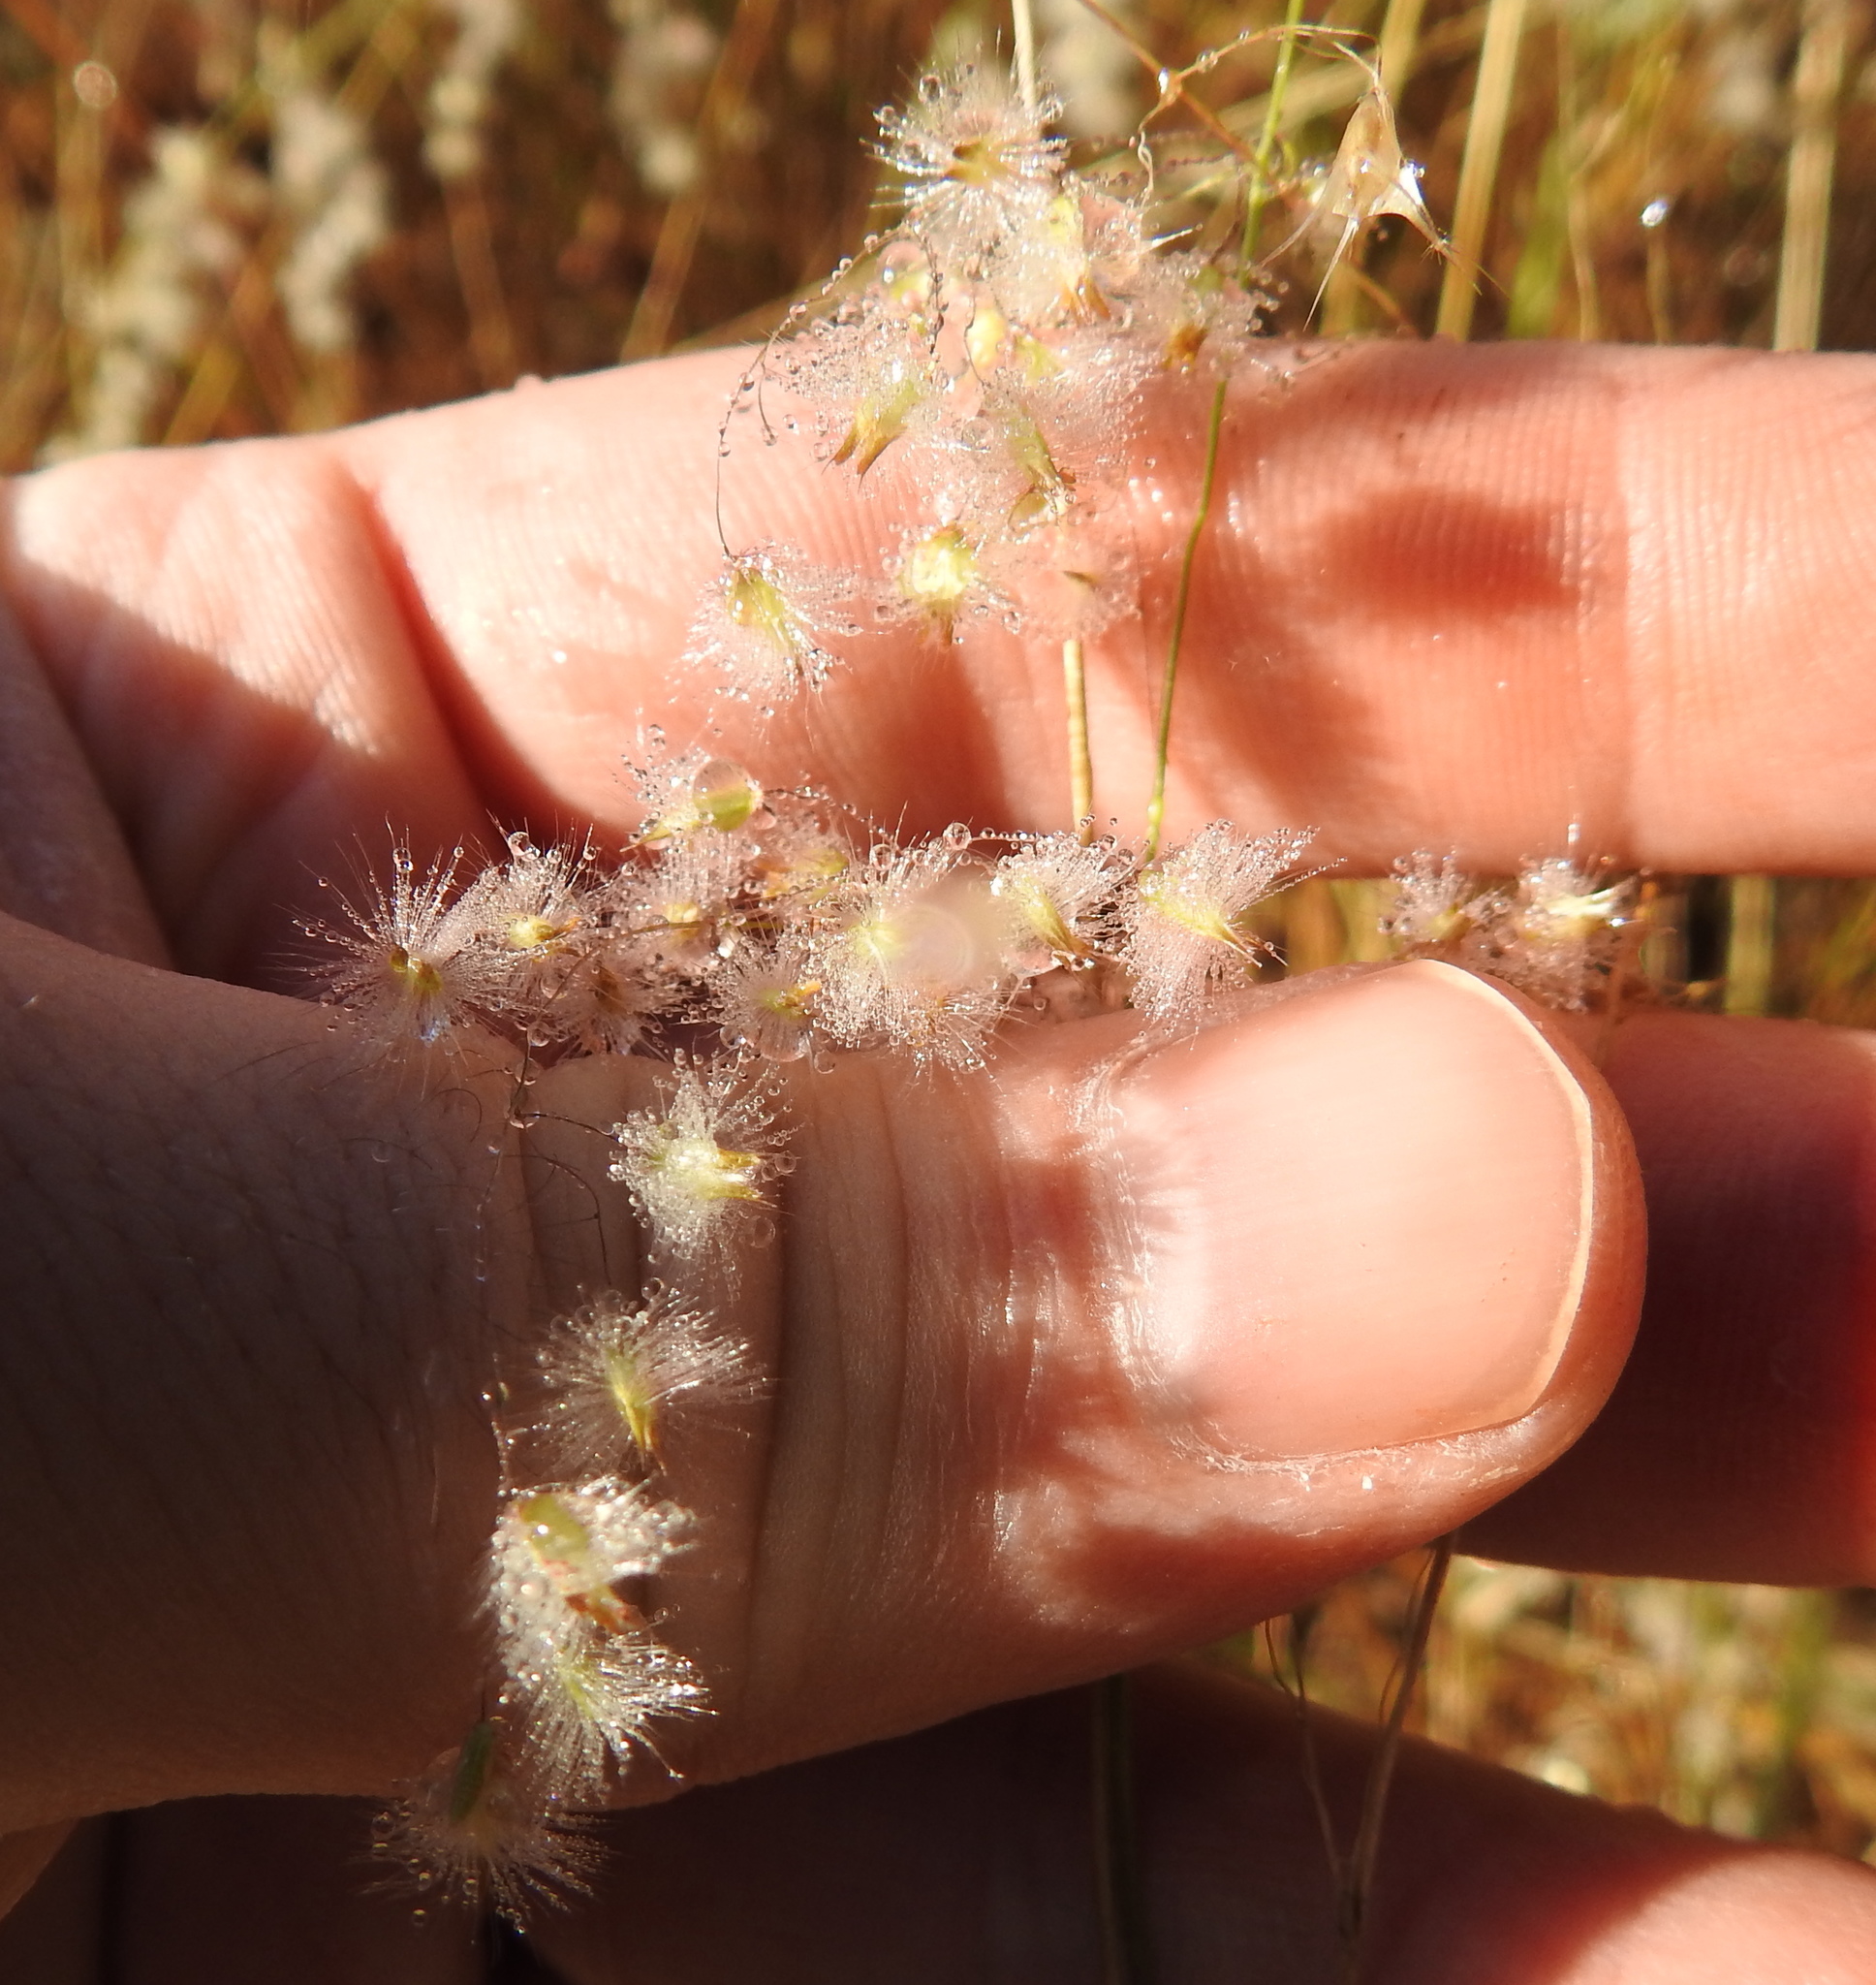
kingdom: Plantae
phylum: Tracheophyta
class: Liliopsida
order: Poales
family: Poaceae
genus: Melinis
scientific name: Melinis repens
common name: Rose natal grass
